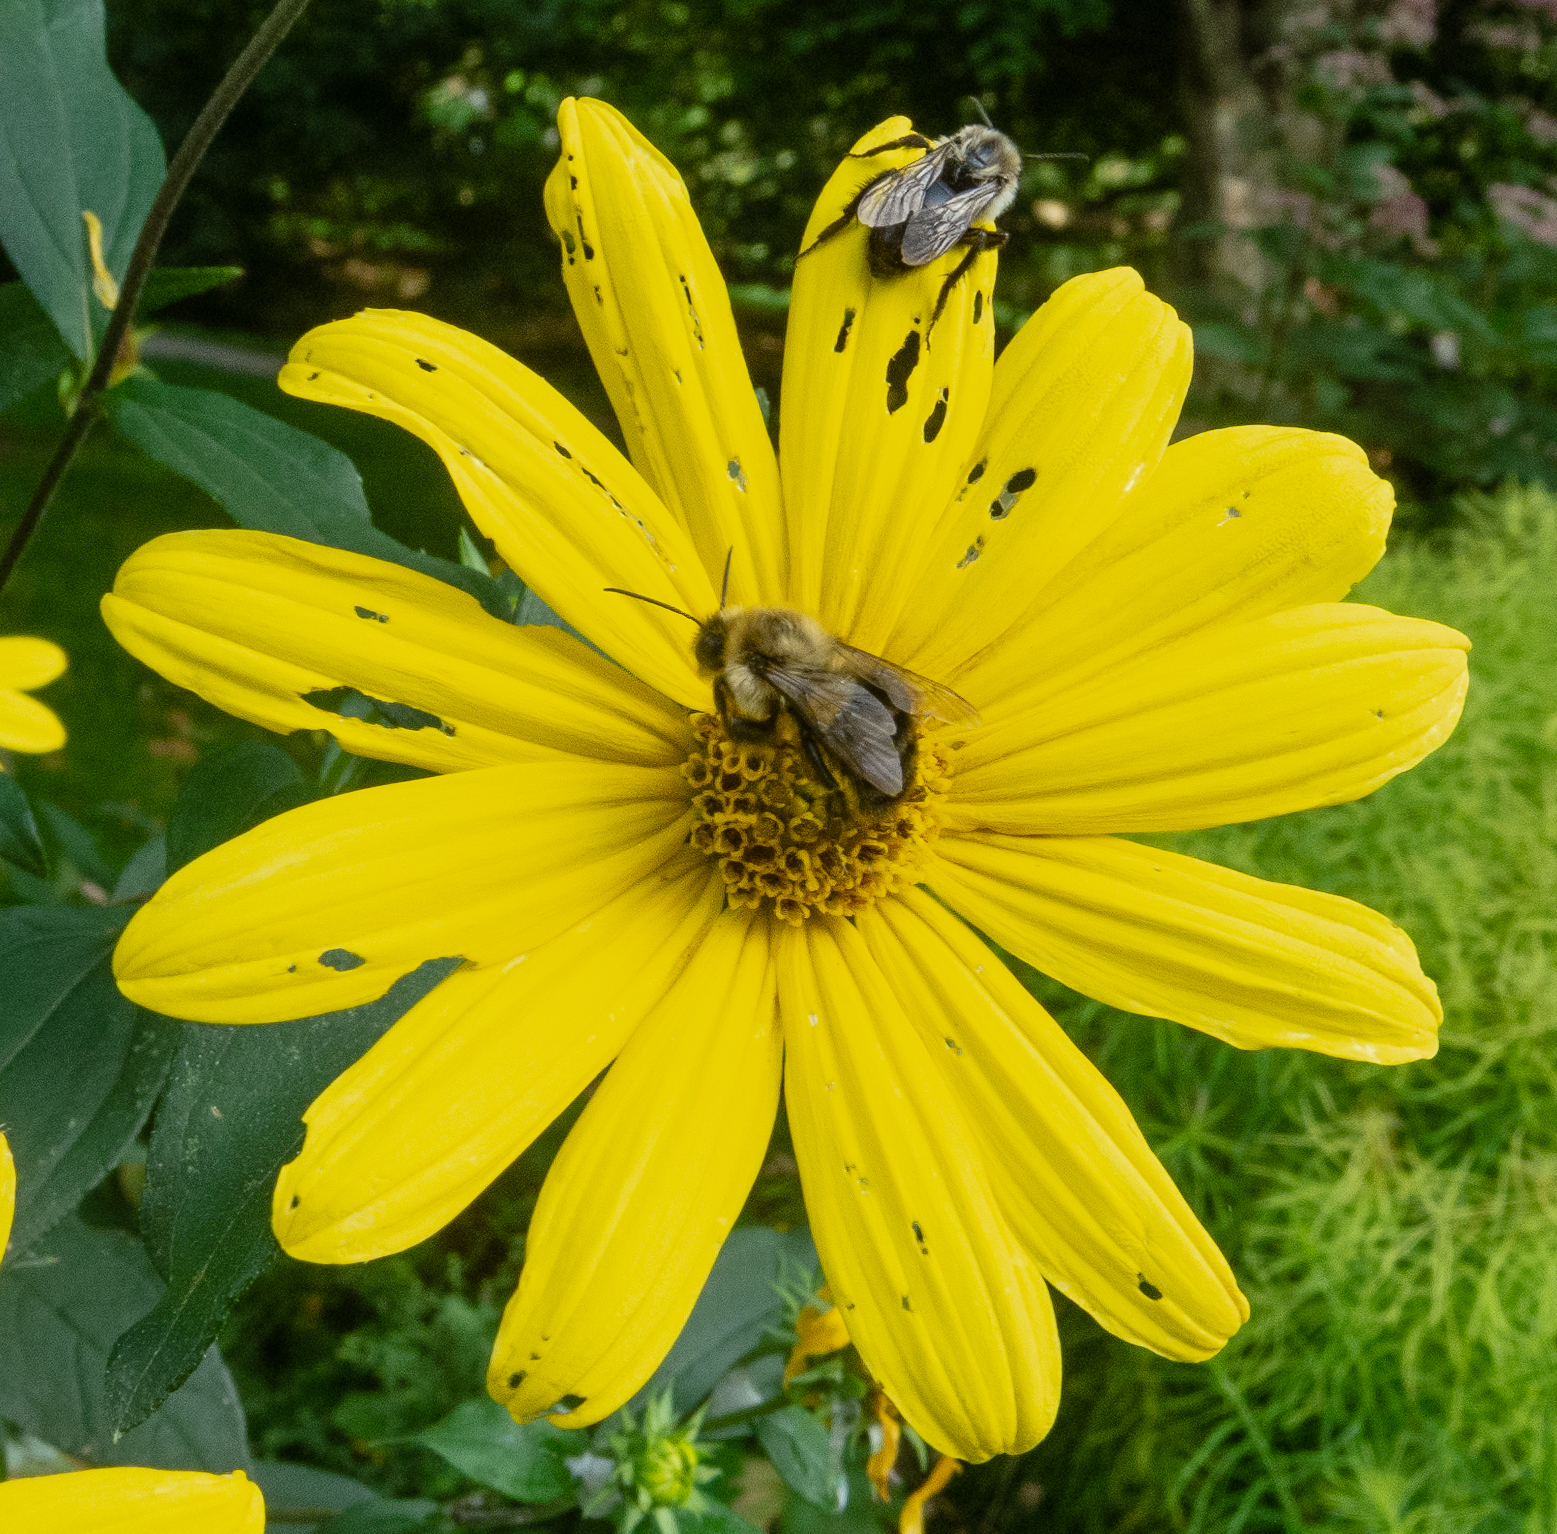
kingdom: Animalia
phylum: Arthropoda
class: Insecta
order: Hymenoptera
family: Apidae
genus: Bombus
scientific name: Bombus impatiens
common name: Common eastern bumble bee
